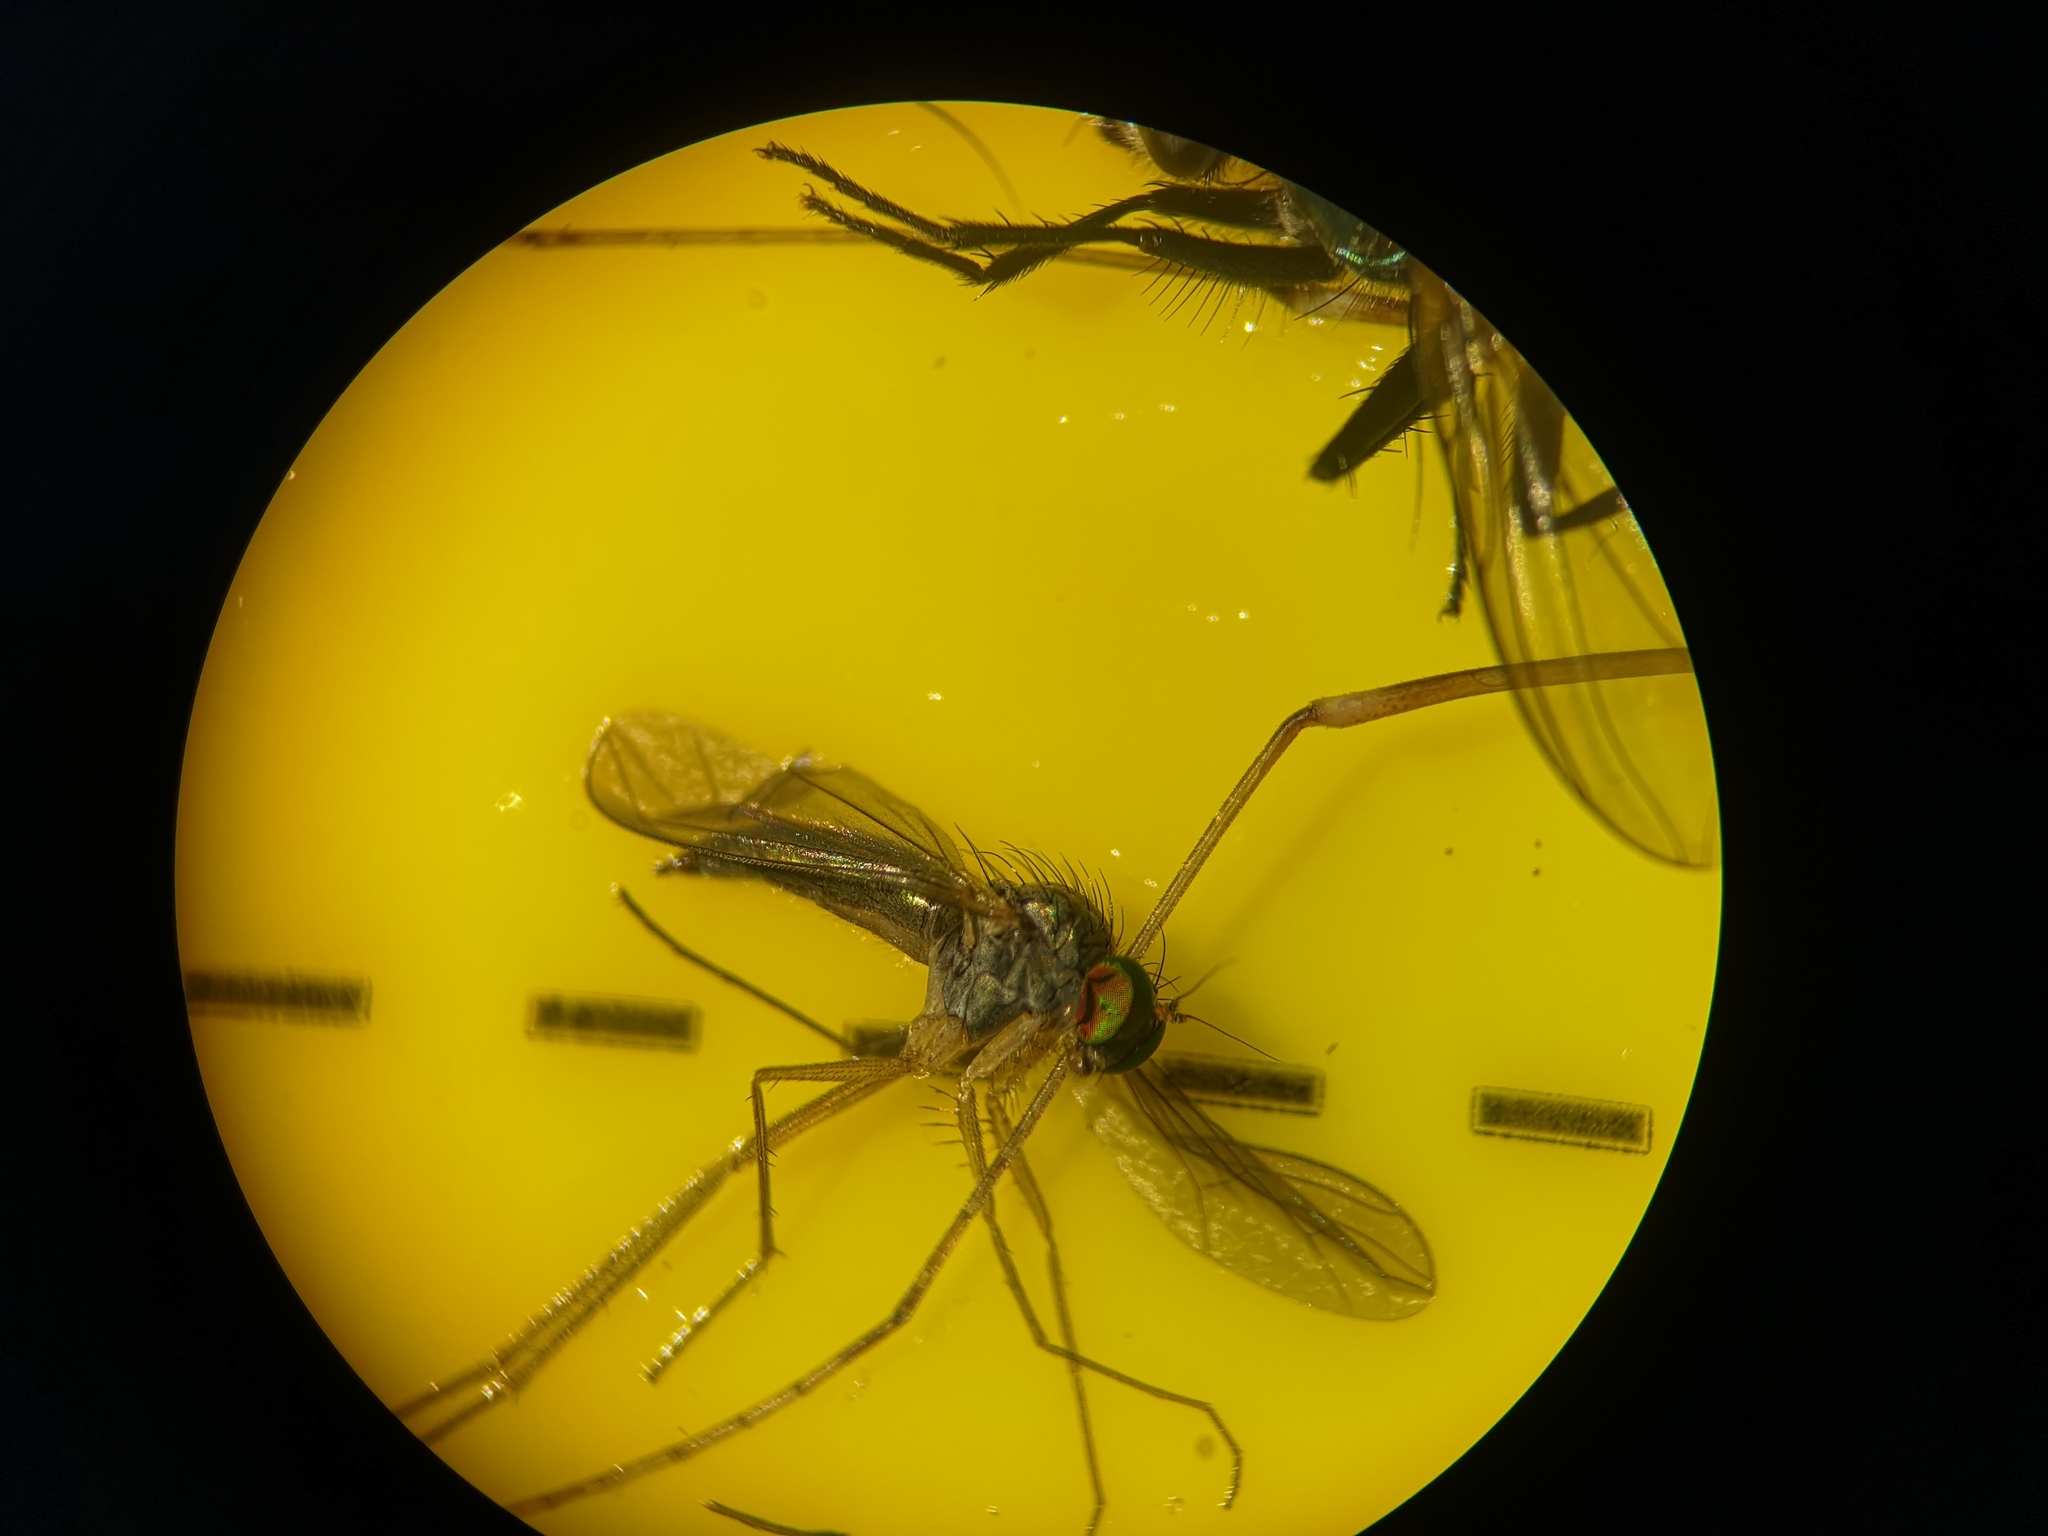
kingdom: Animalia
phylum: Arthropoda
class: Insecta
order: Diptera
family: Dolichopodidae
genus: Sciapus
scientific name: Sciapus platypterus
